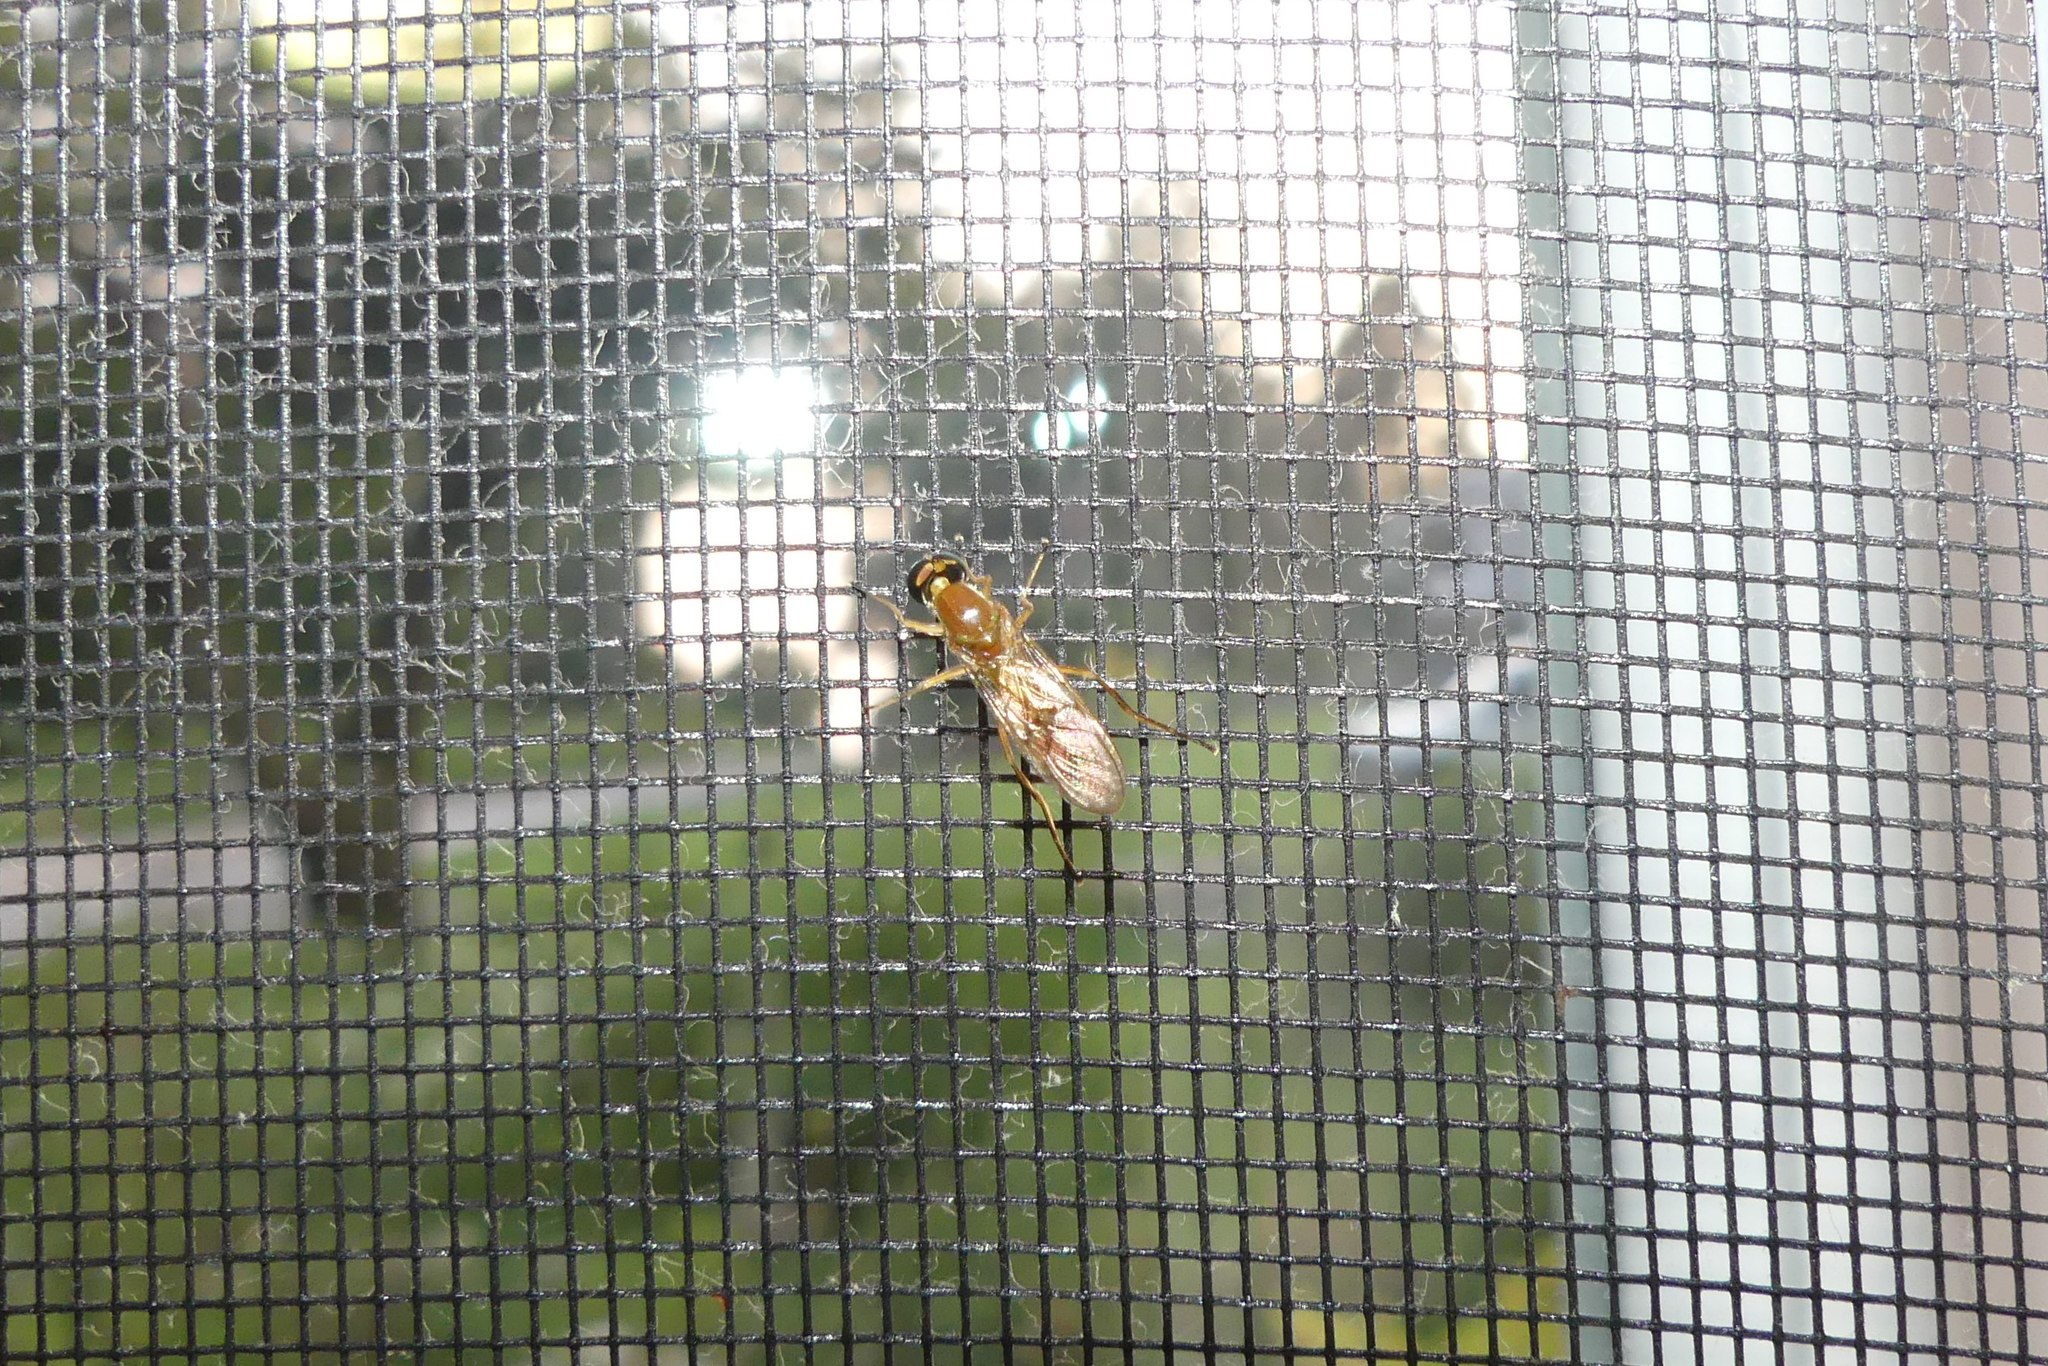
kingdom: Animalia
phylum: Arthropoda
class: Insecta
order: Diptera
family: Stratiomyidae
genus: Ptecticus
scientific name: Ptecticus trivittatus
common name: Compost fly
